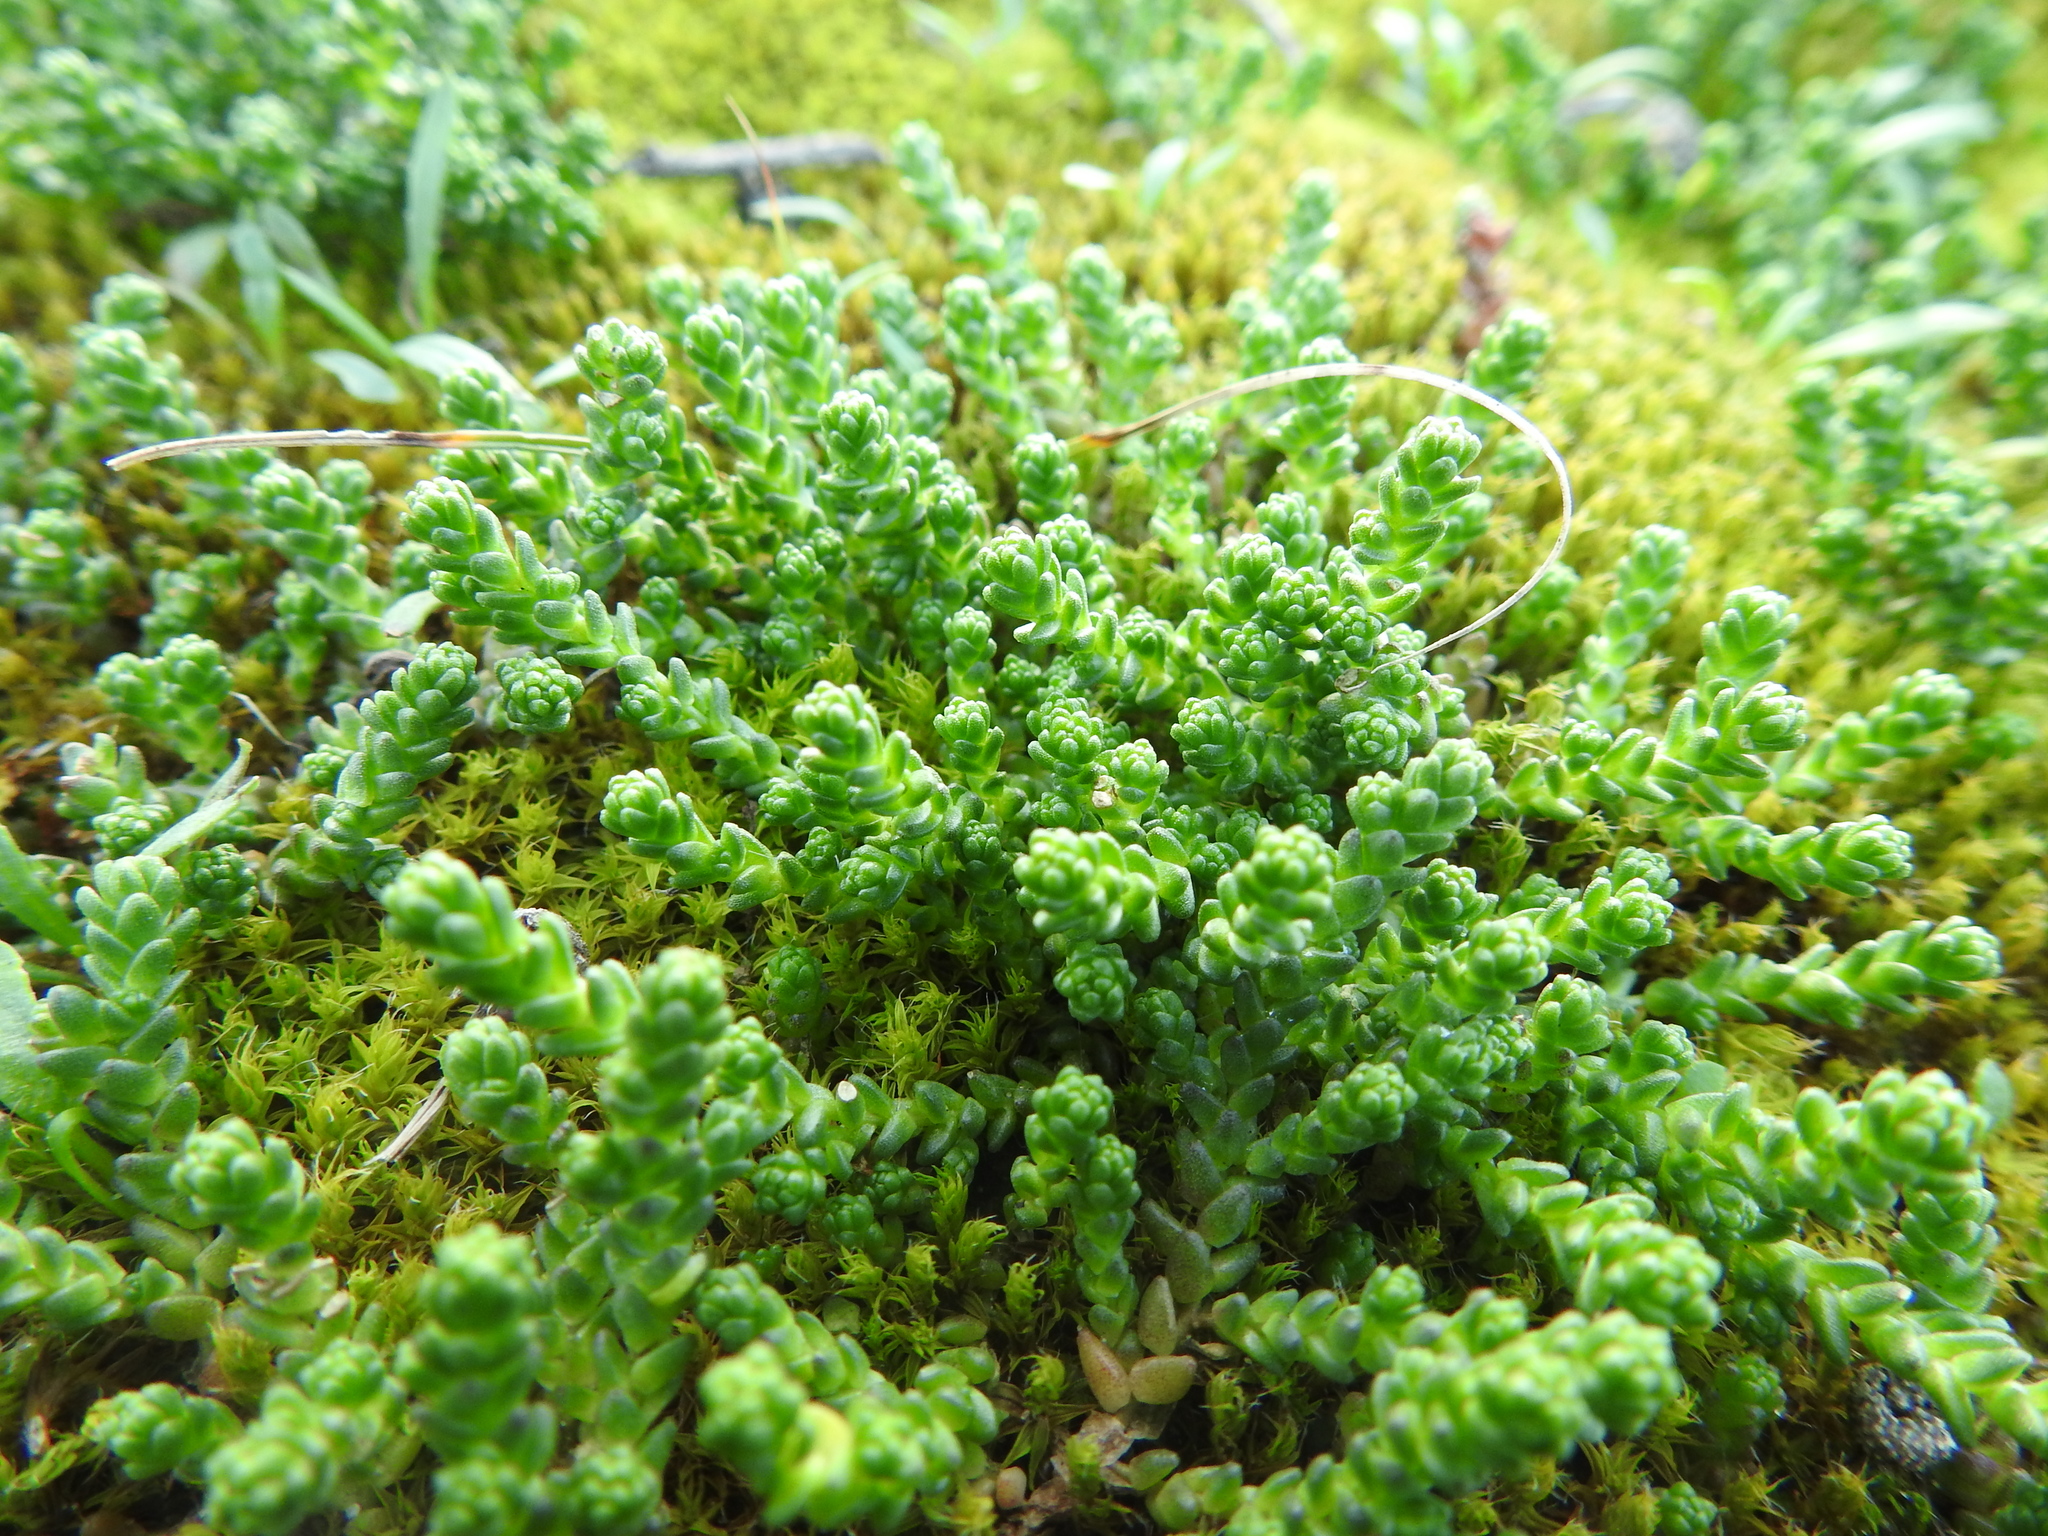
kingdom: Plantae
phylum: Tracheophyta
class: Magnoliopsida
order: Saxifragales
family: Crassulaceae
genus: Sedum
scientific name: Sedum acre
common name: Biting stonecrop
